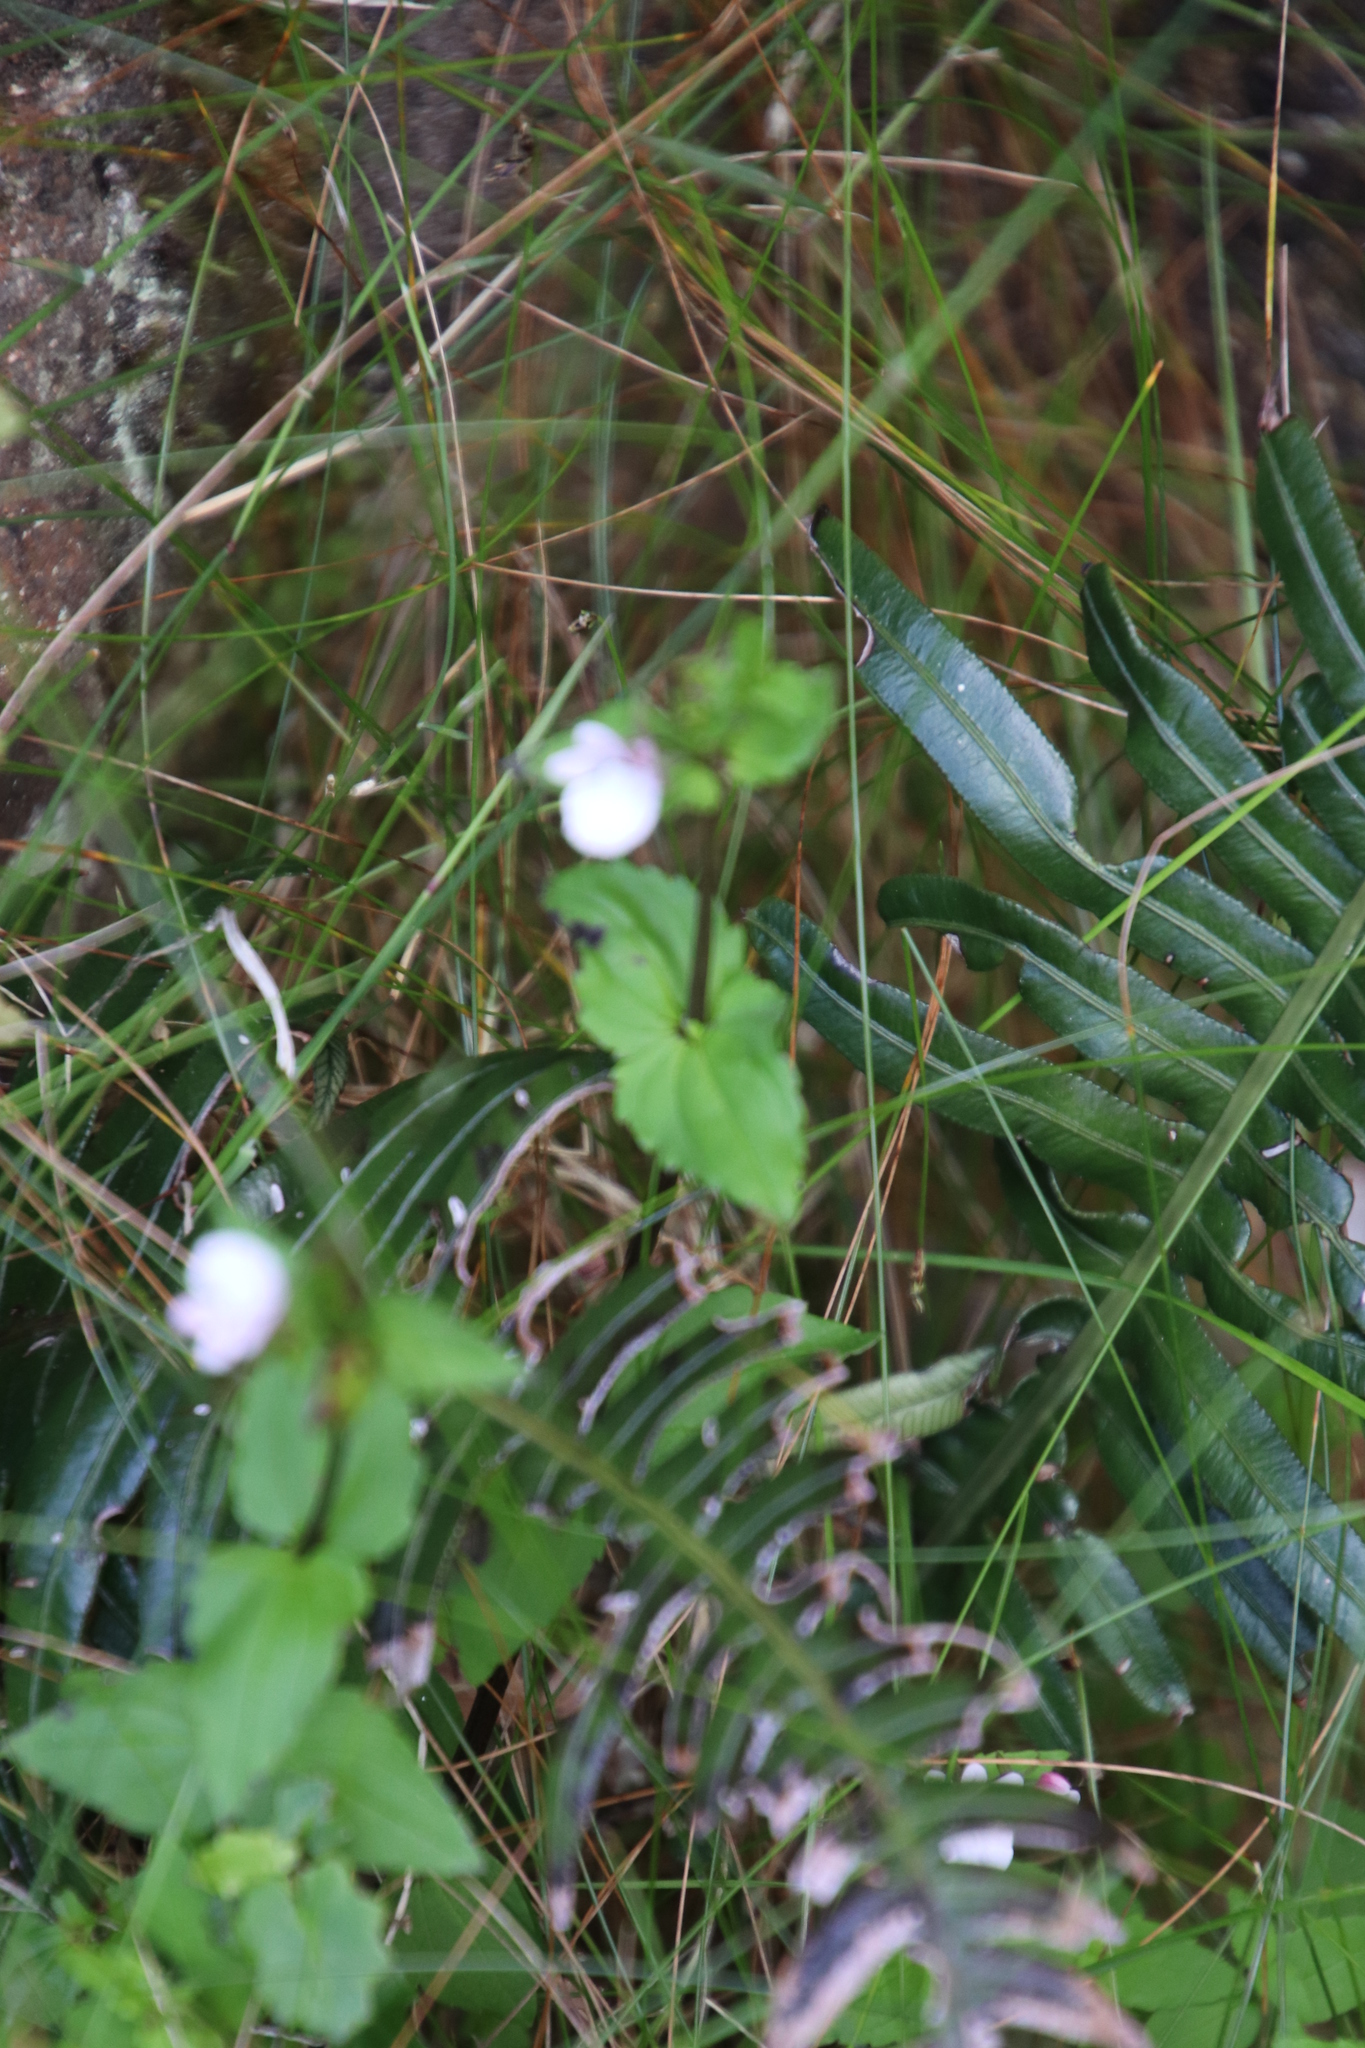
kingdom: Plantae
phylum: Tracheophyta
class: Magnoliopsida
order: Lamiales
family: Scrophulariaceae
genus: Nemesia
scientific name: Nemesia macrocarpa
